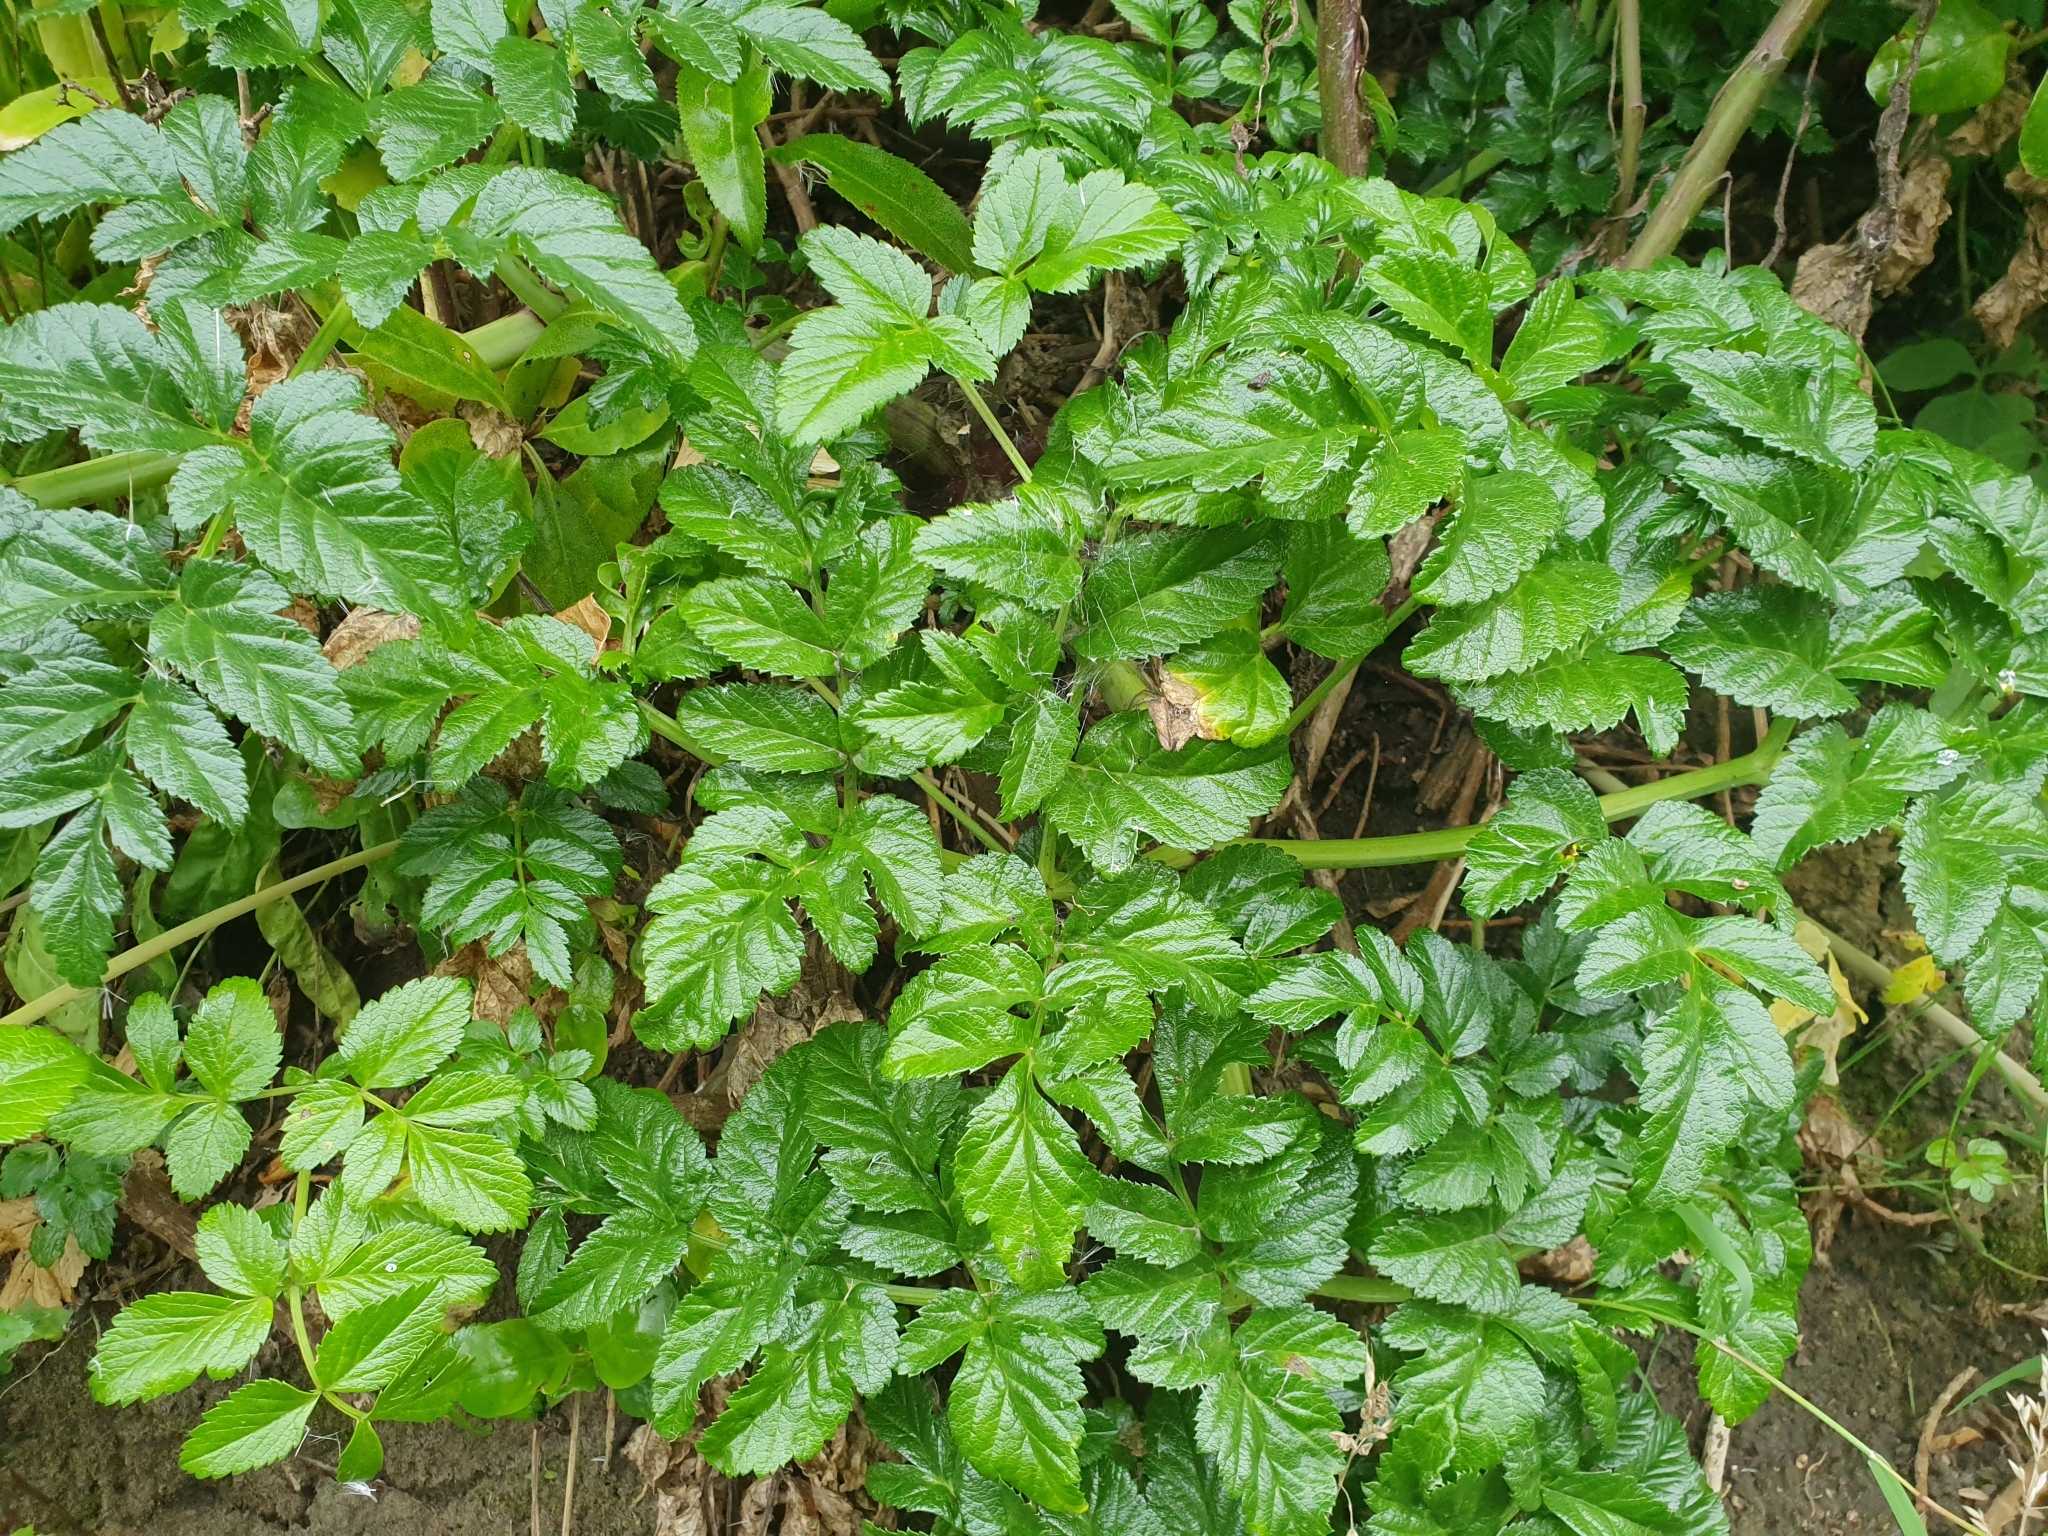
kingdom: Plantae
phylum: Tracheophyta
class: Magnoliopsida
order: Apiales
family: Apiaceae
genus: Angelica
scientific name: Angelica pachycarpa
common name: Portuguese angelica
